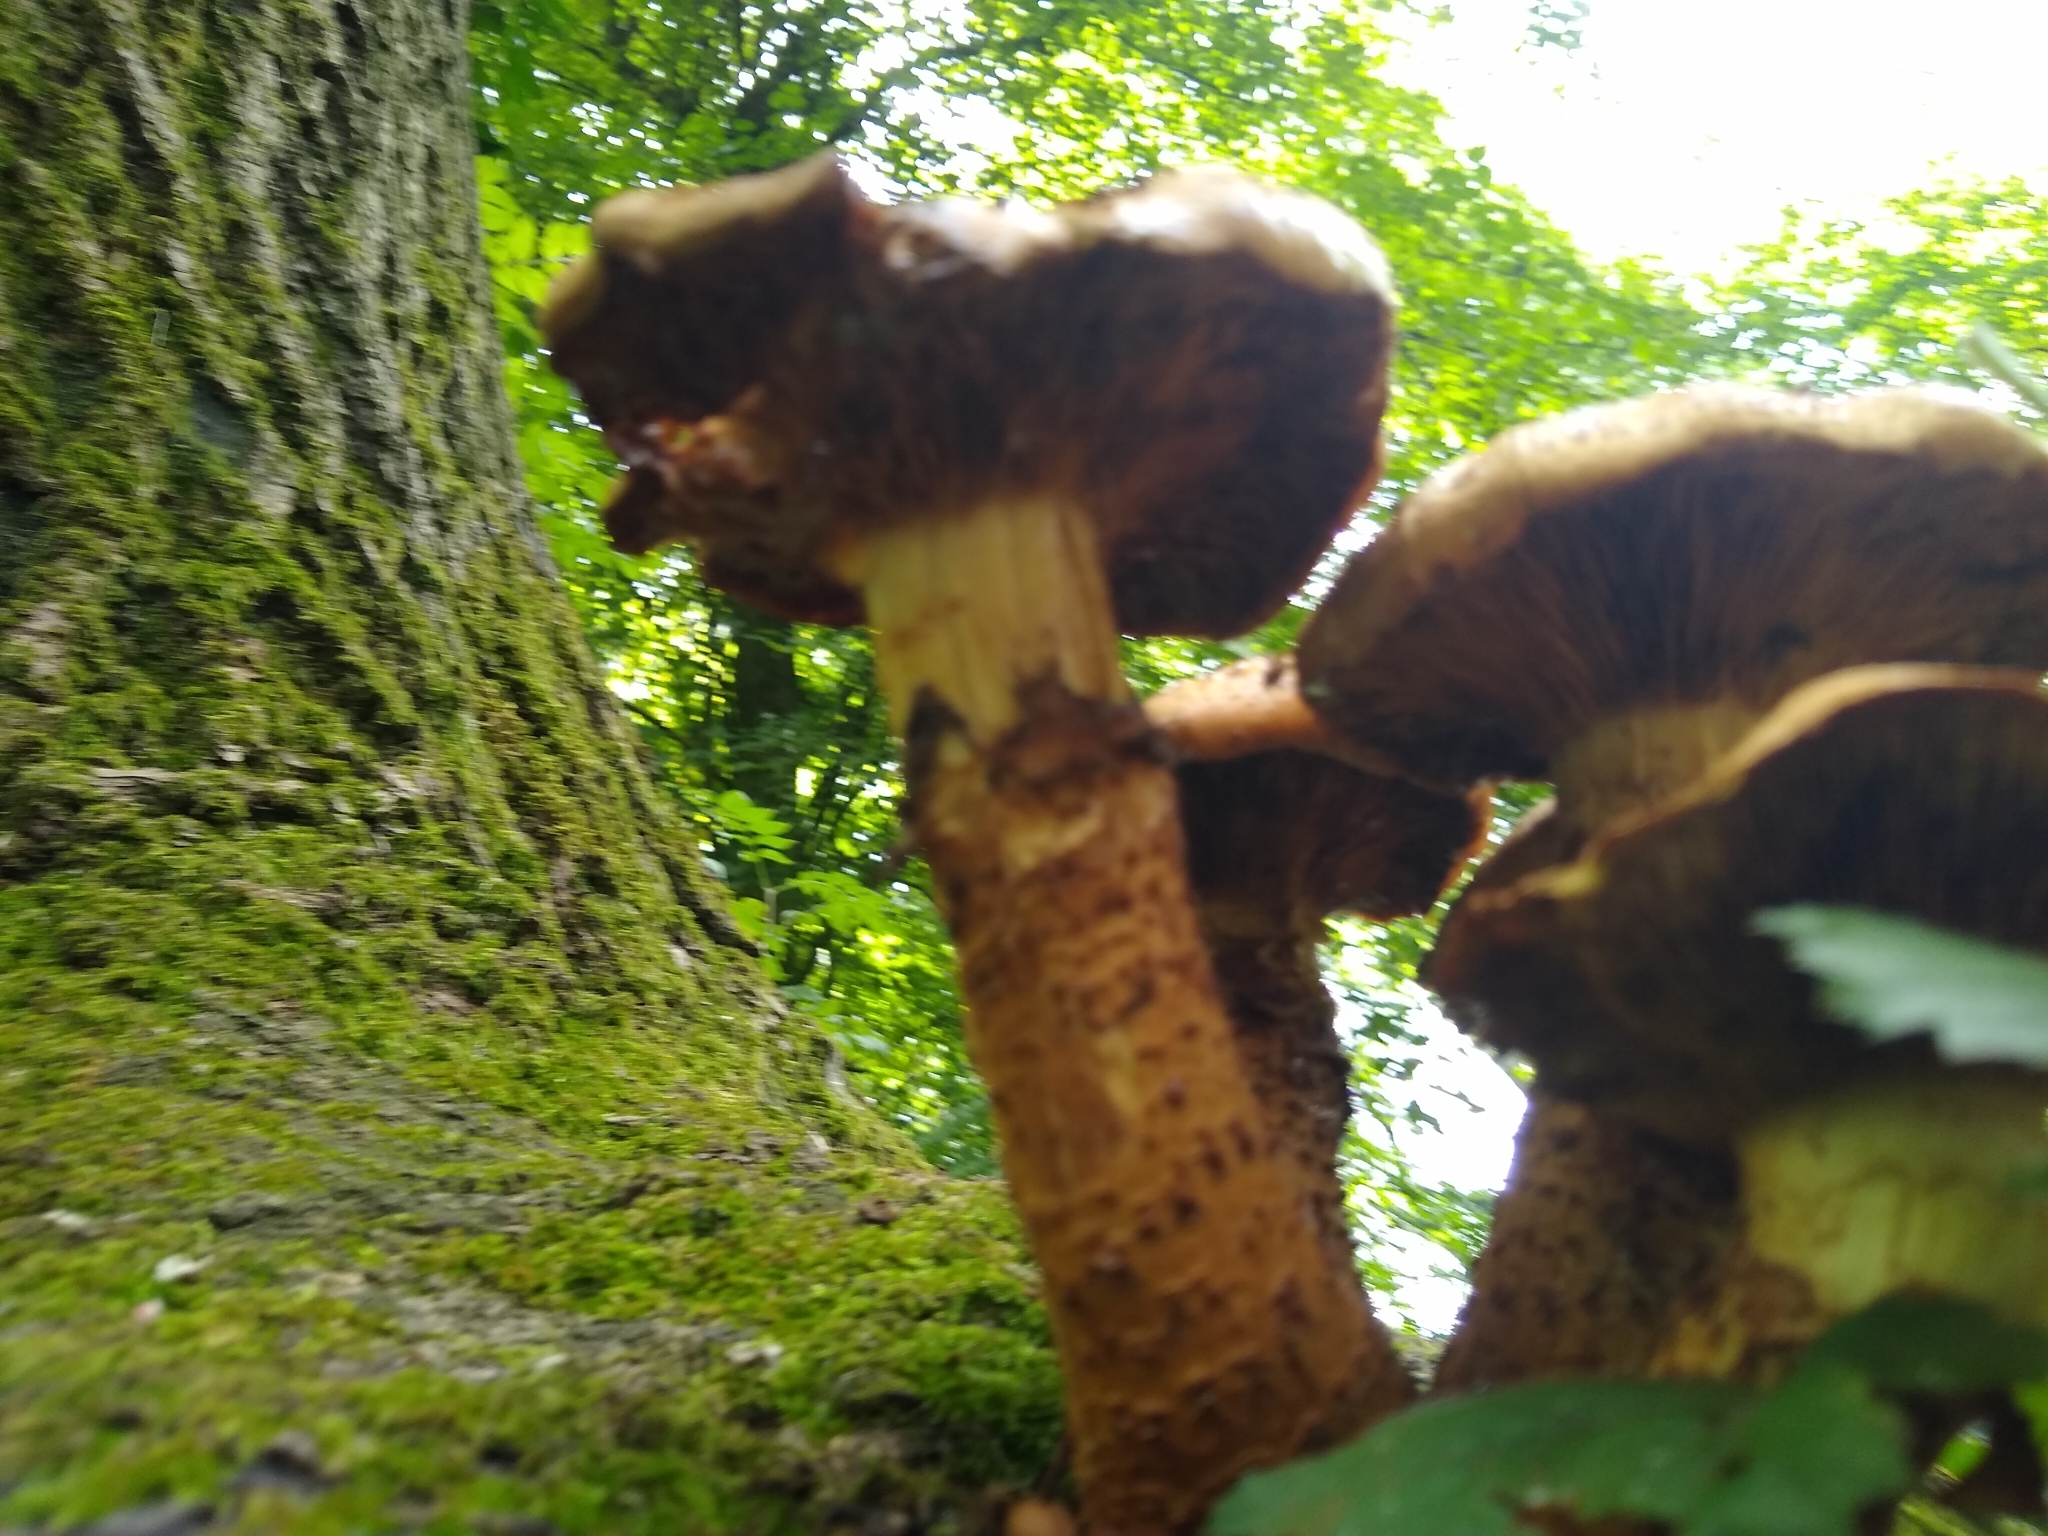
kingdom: Fungi
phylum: Basidiomycota
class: Agaricomycetes
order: Agaricales
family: Strophariaceae
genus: Pholiota
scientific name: Pholiota squarrosa
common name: Shaggy pholiota
